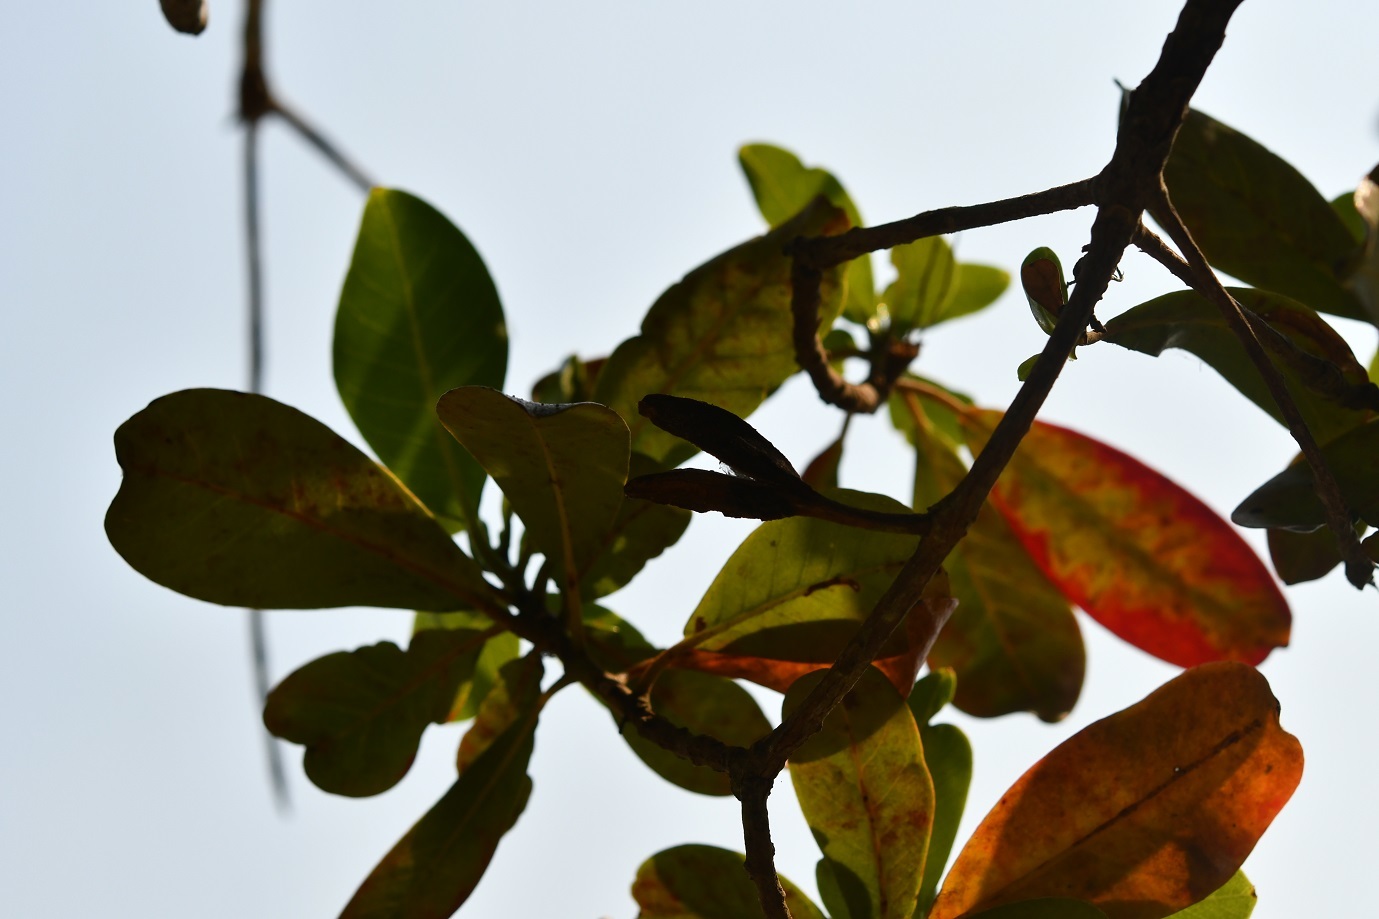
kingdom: Plantae
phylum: Tracheophyta
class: Magnoliopsida
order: Myrtales
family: Onagraceae
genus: Hauya
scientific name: Hauya elegans
